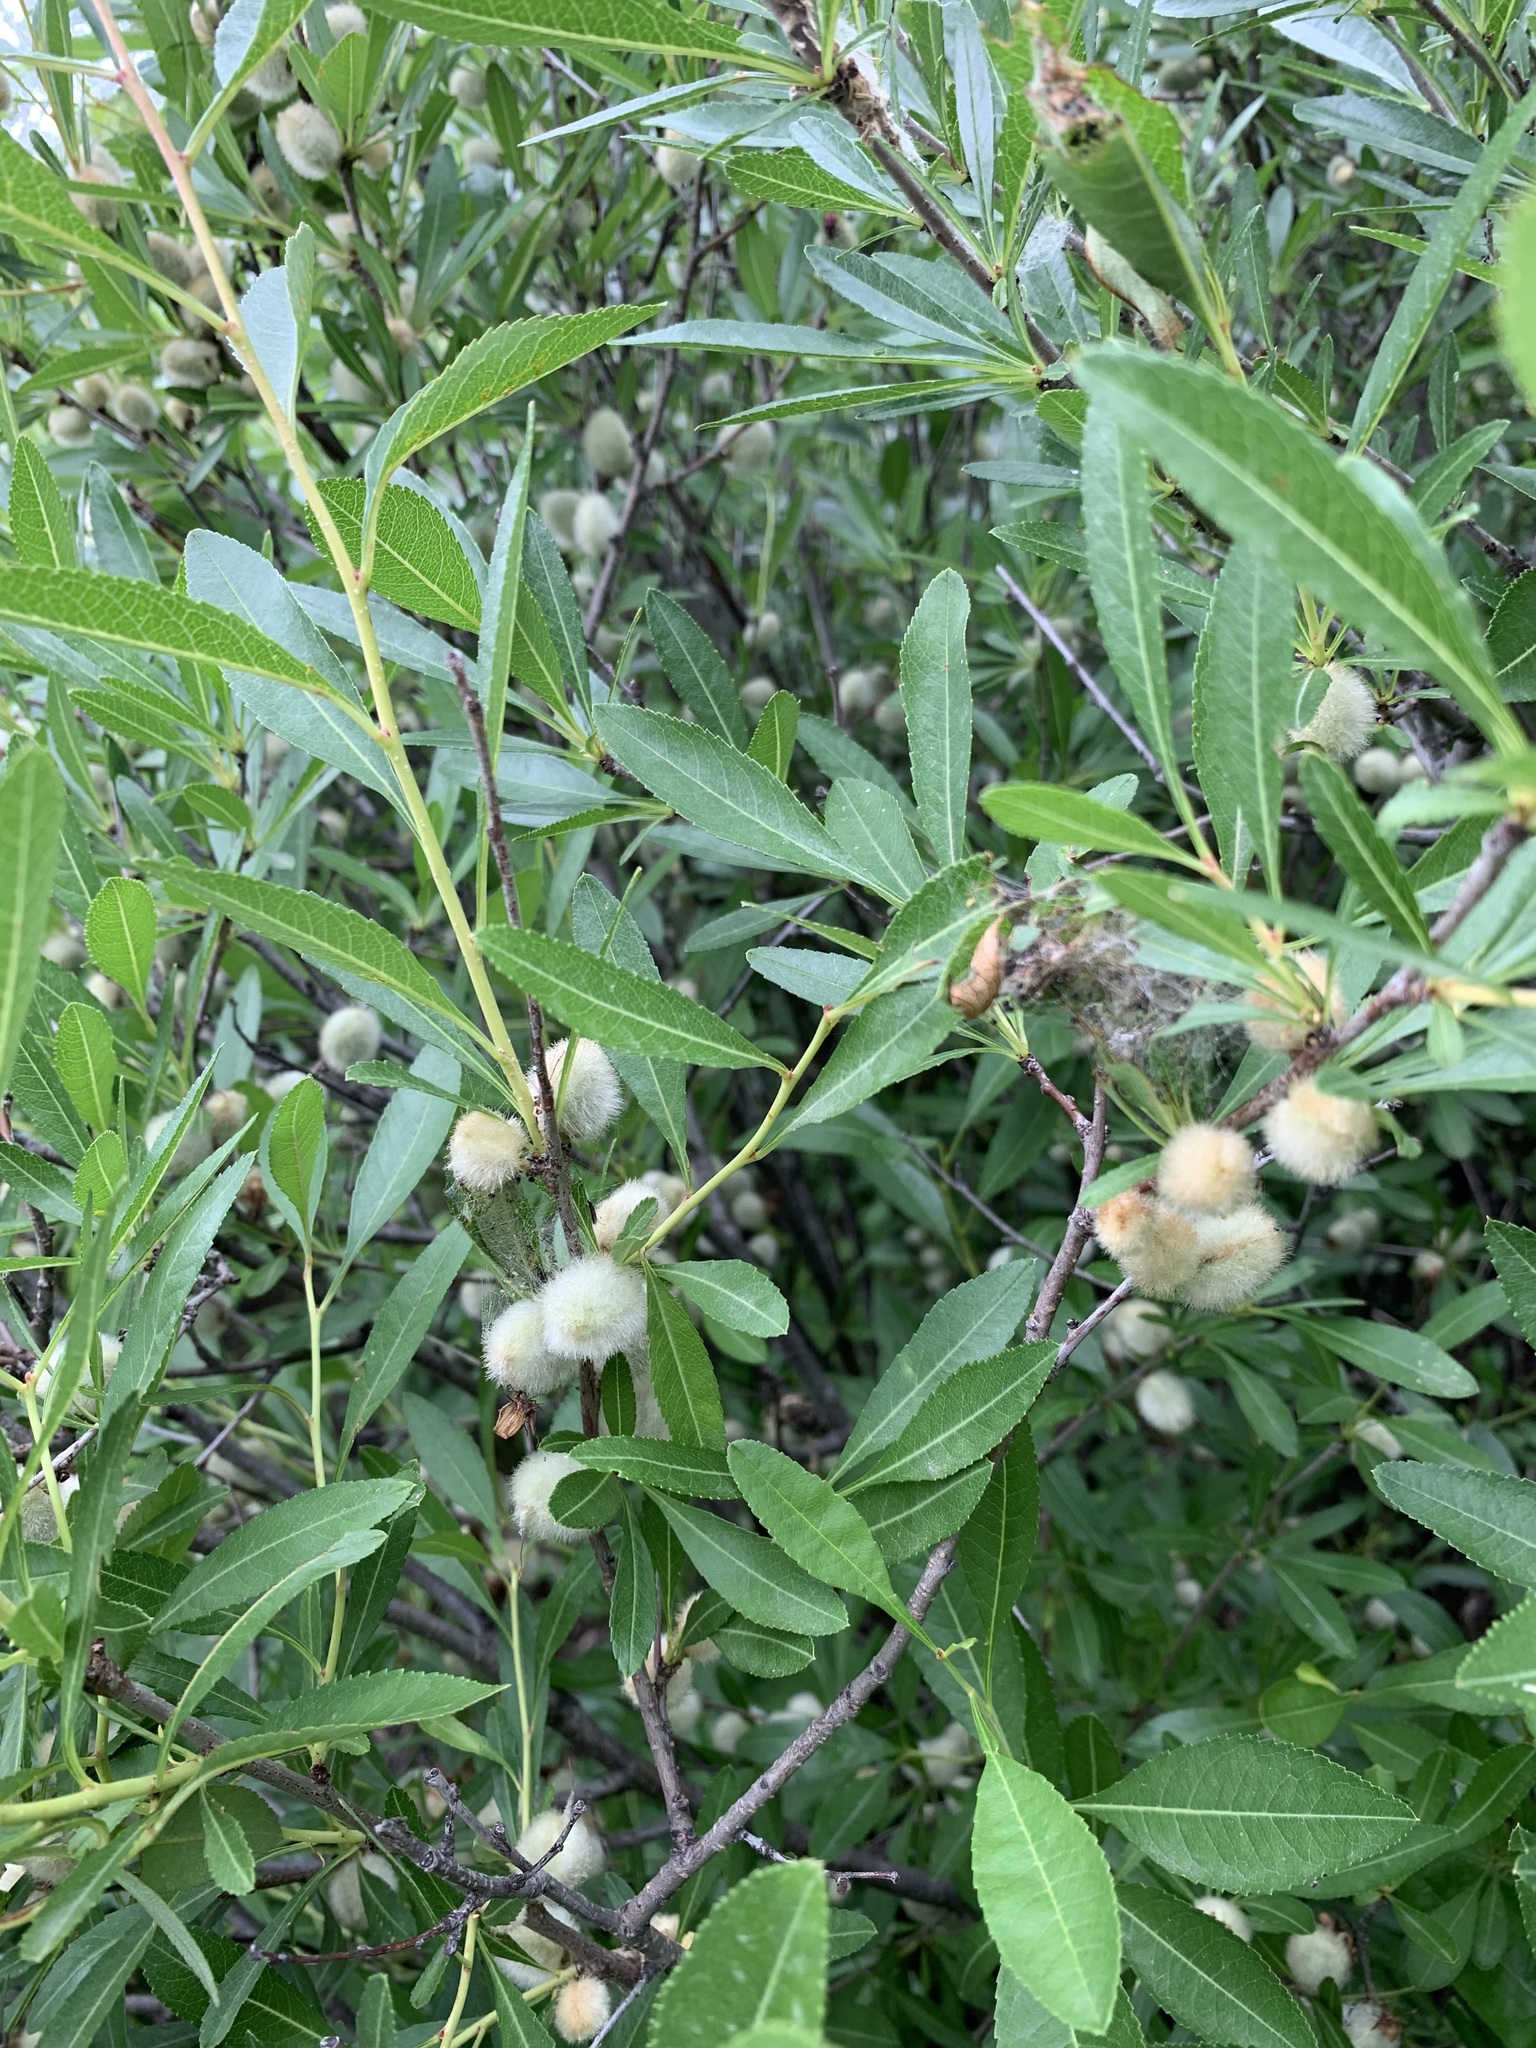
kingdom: Plantae
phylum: Tracheophyta
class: Magnoliopsida
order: Rosales
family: Rosaceae
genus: Prunus
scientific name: Prunus tenella
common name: Dwarf russian almond
